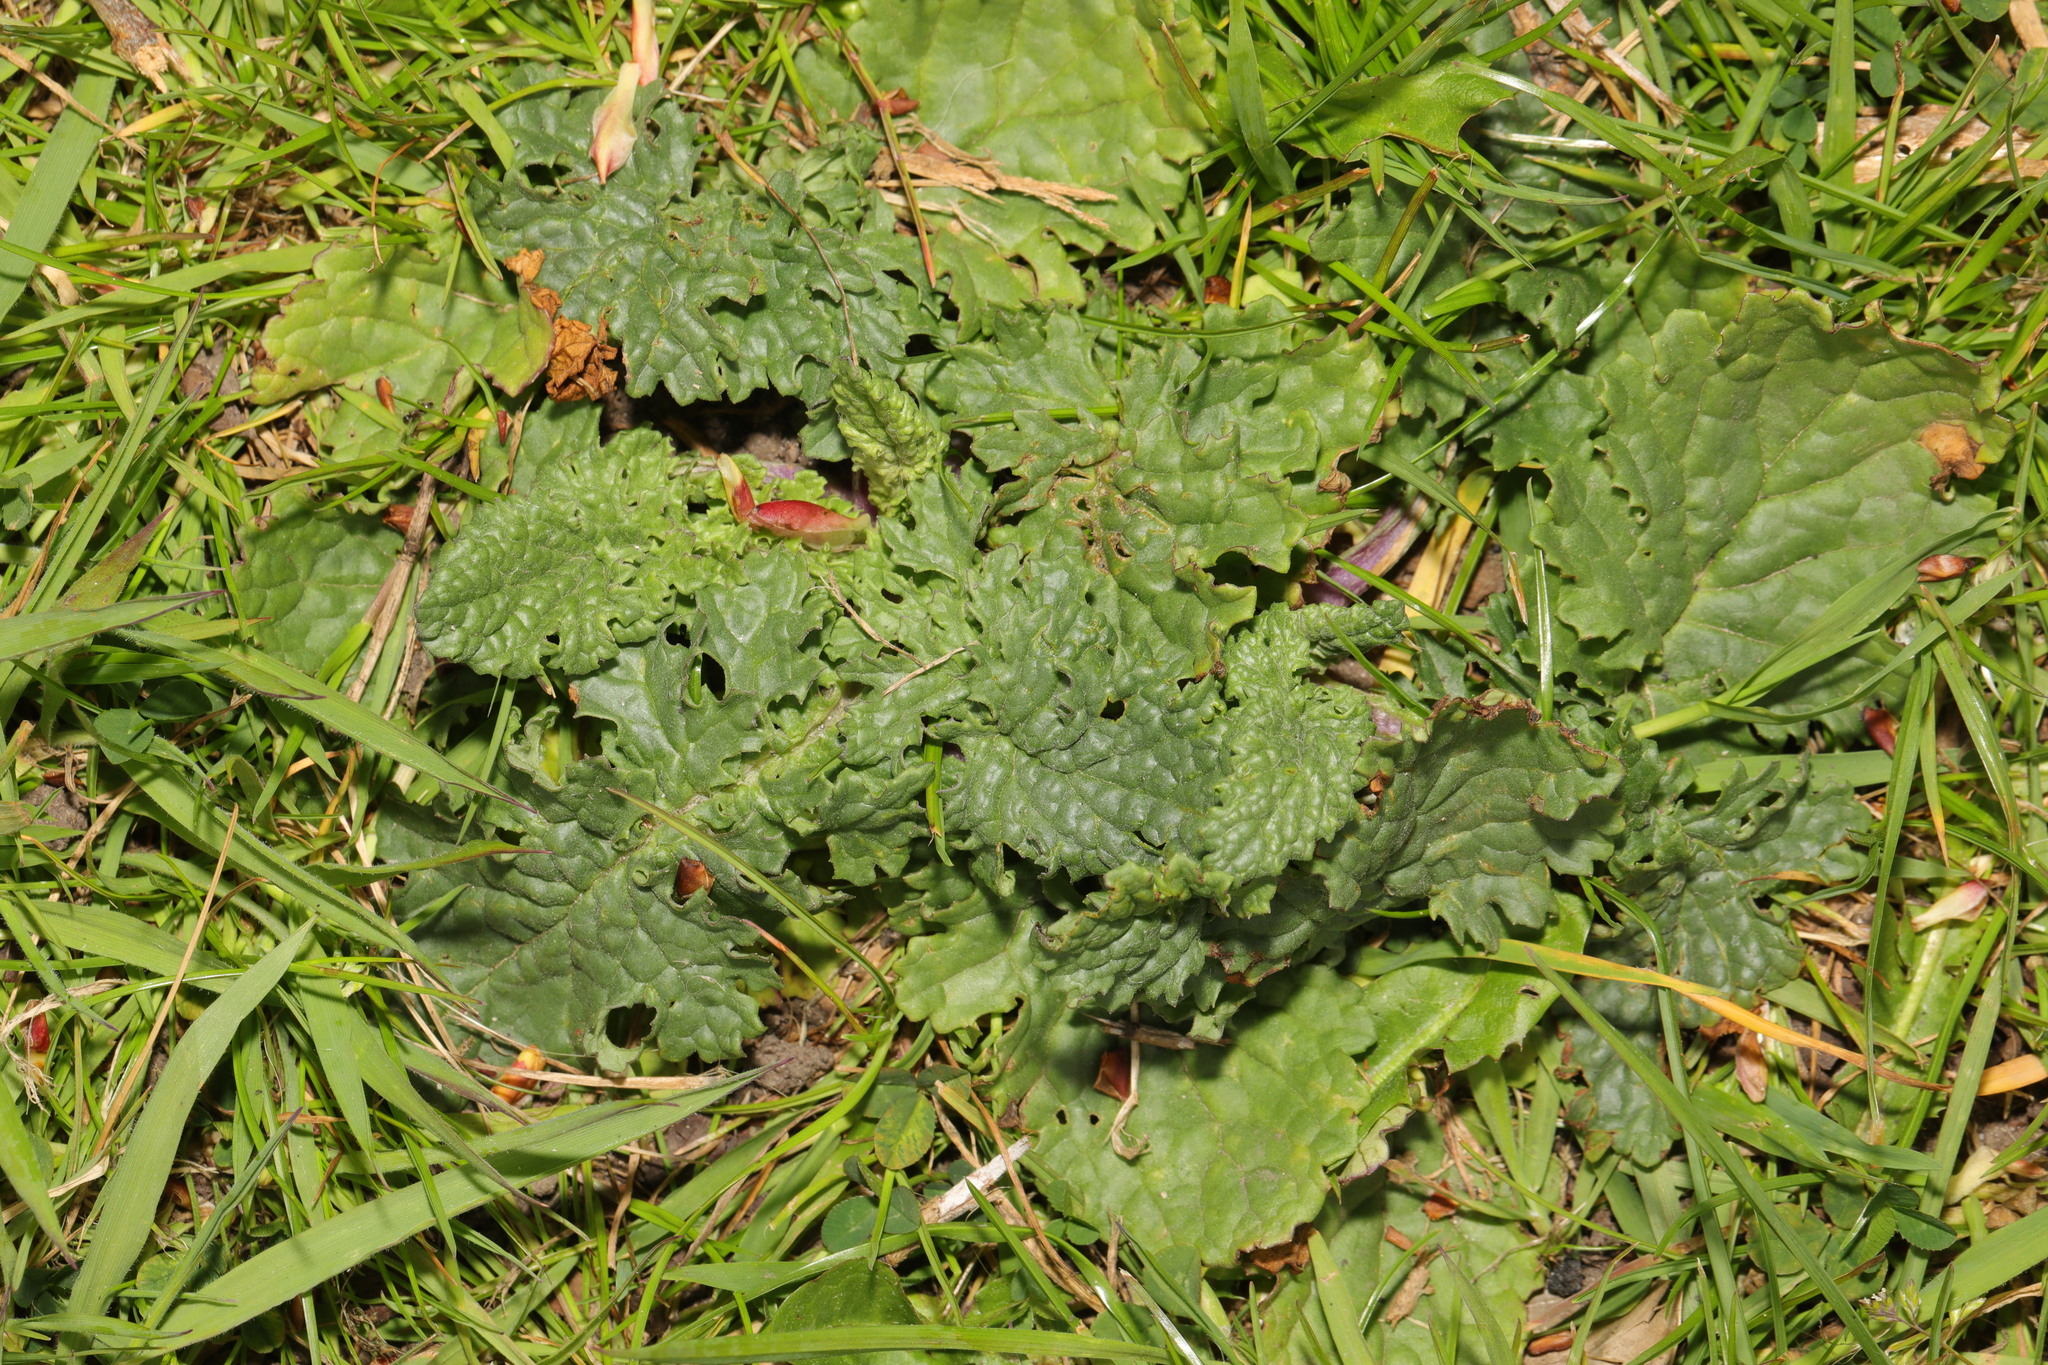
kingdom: Plantae
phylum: Tracheophyta
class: Magnoliopsida
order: Asterales
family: Asteraceae
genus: Jacobaea
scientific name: Jacobaea vulgaris
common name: Stinking willie
